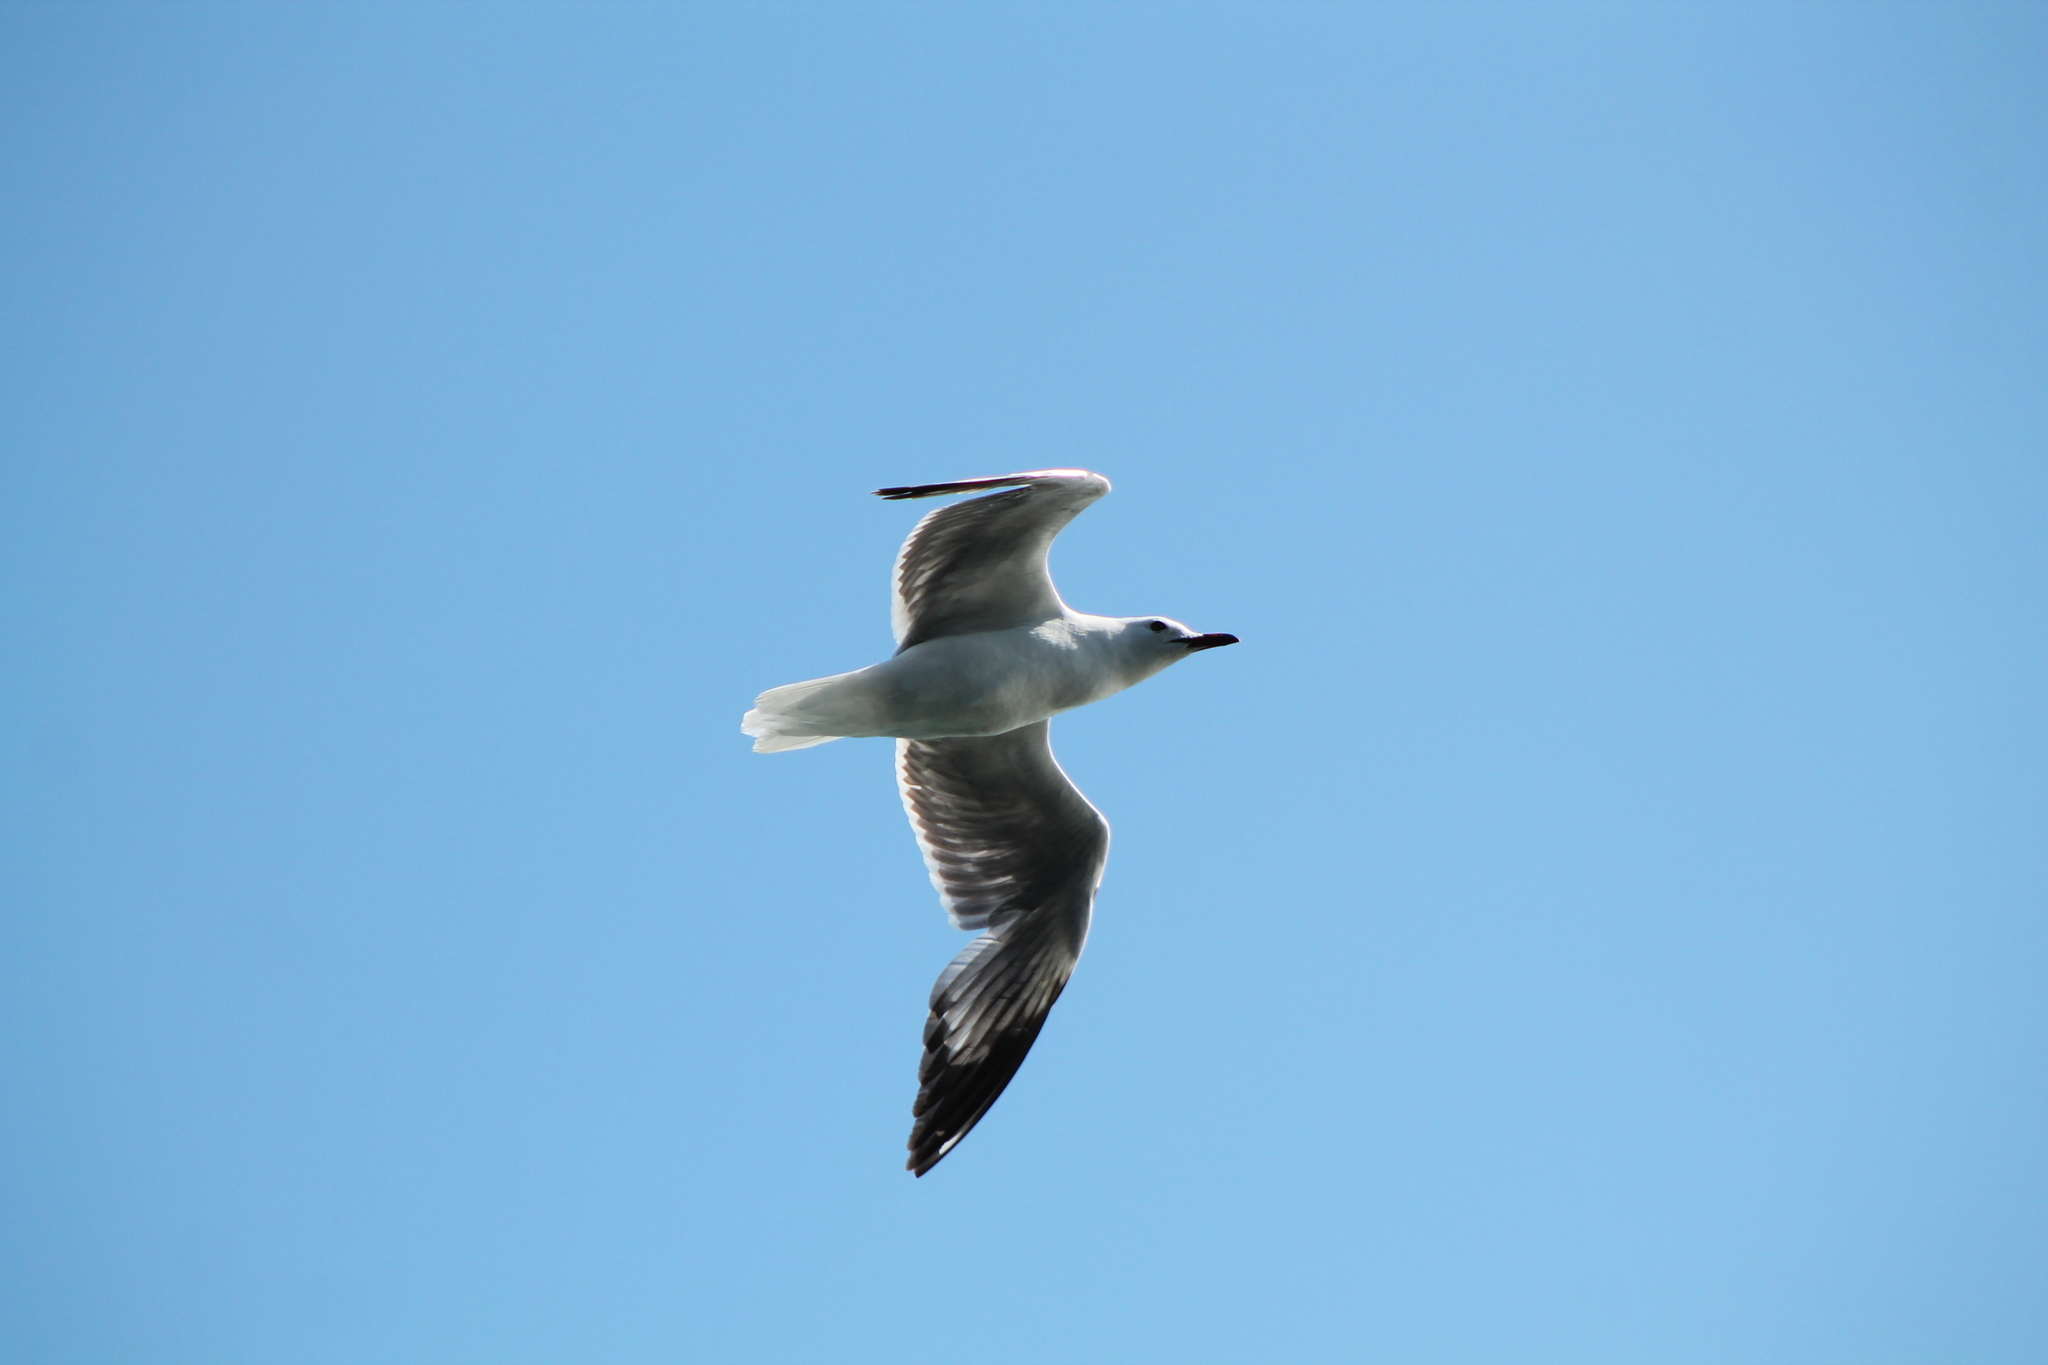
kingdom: Animalia
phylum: Chordata
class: Aves
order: Charadriiformes
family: Laridae
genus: Chroicocephalus
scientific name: Chroicocephalus novaehollandiae
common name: Silver gull
